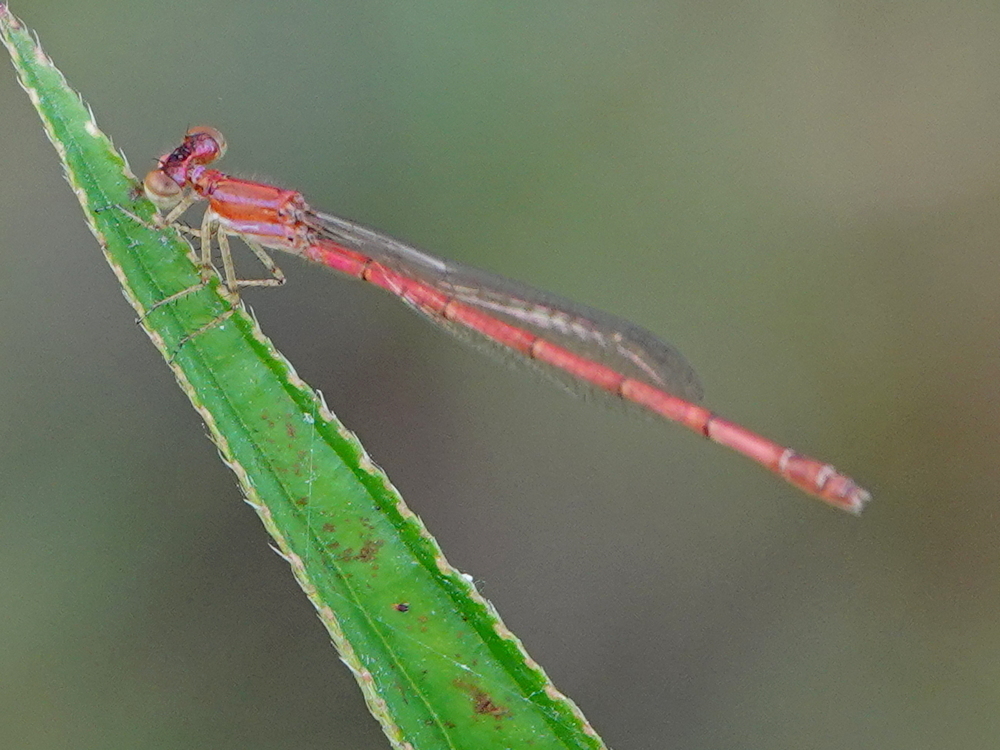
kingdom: Animalia
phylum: Arthropoda
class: Insecta
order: Odonata
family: Coenagrionidae
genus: Agriocnemis
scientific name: Agriocnemis lacteola
